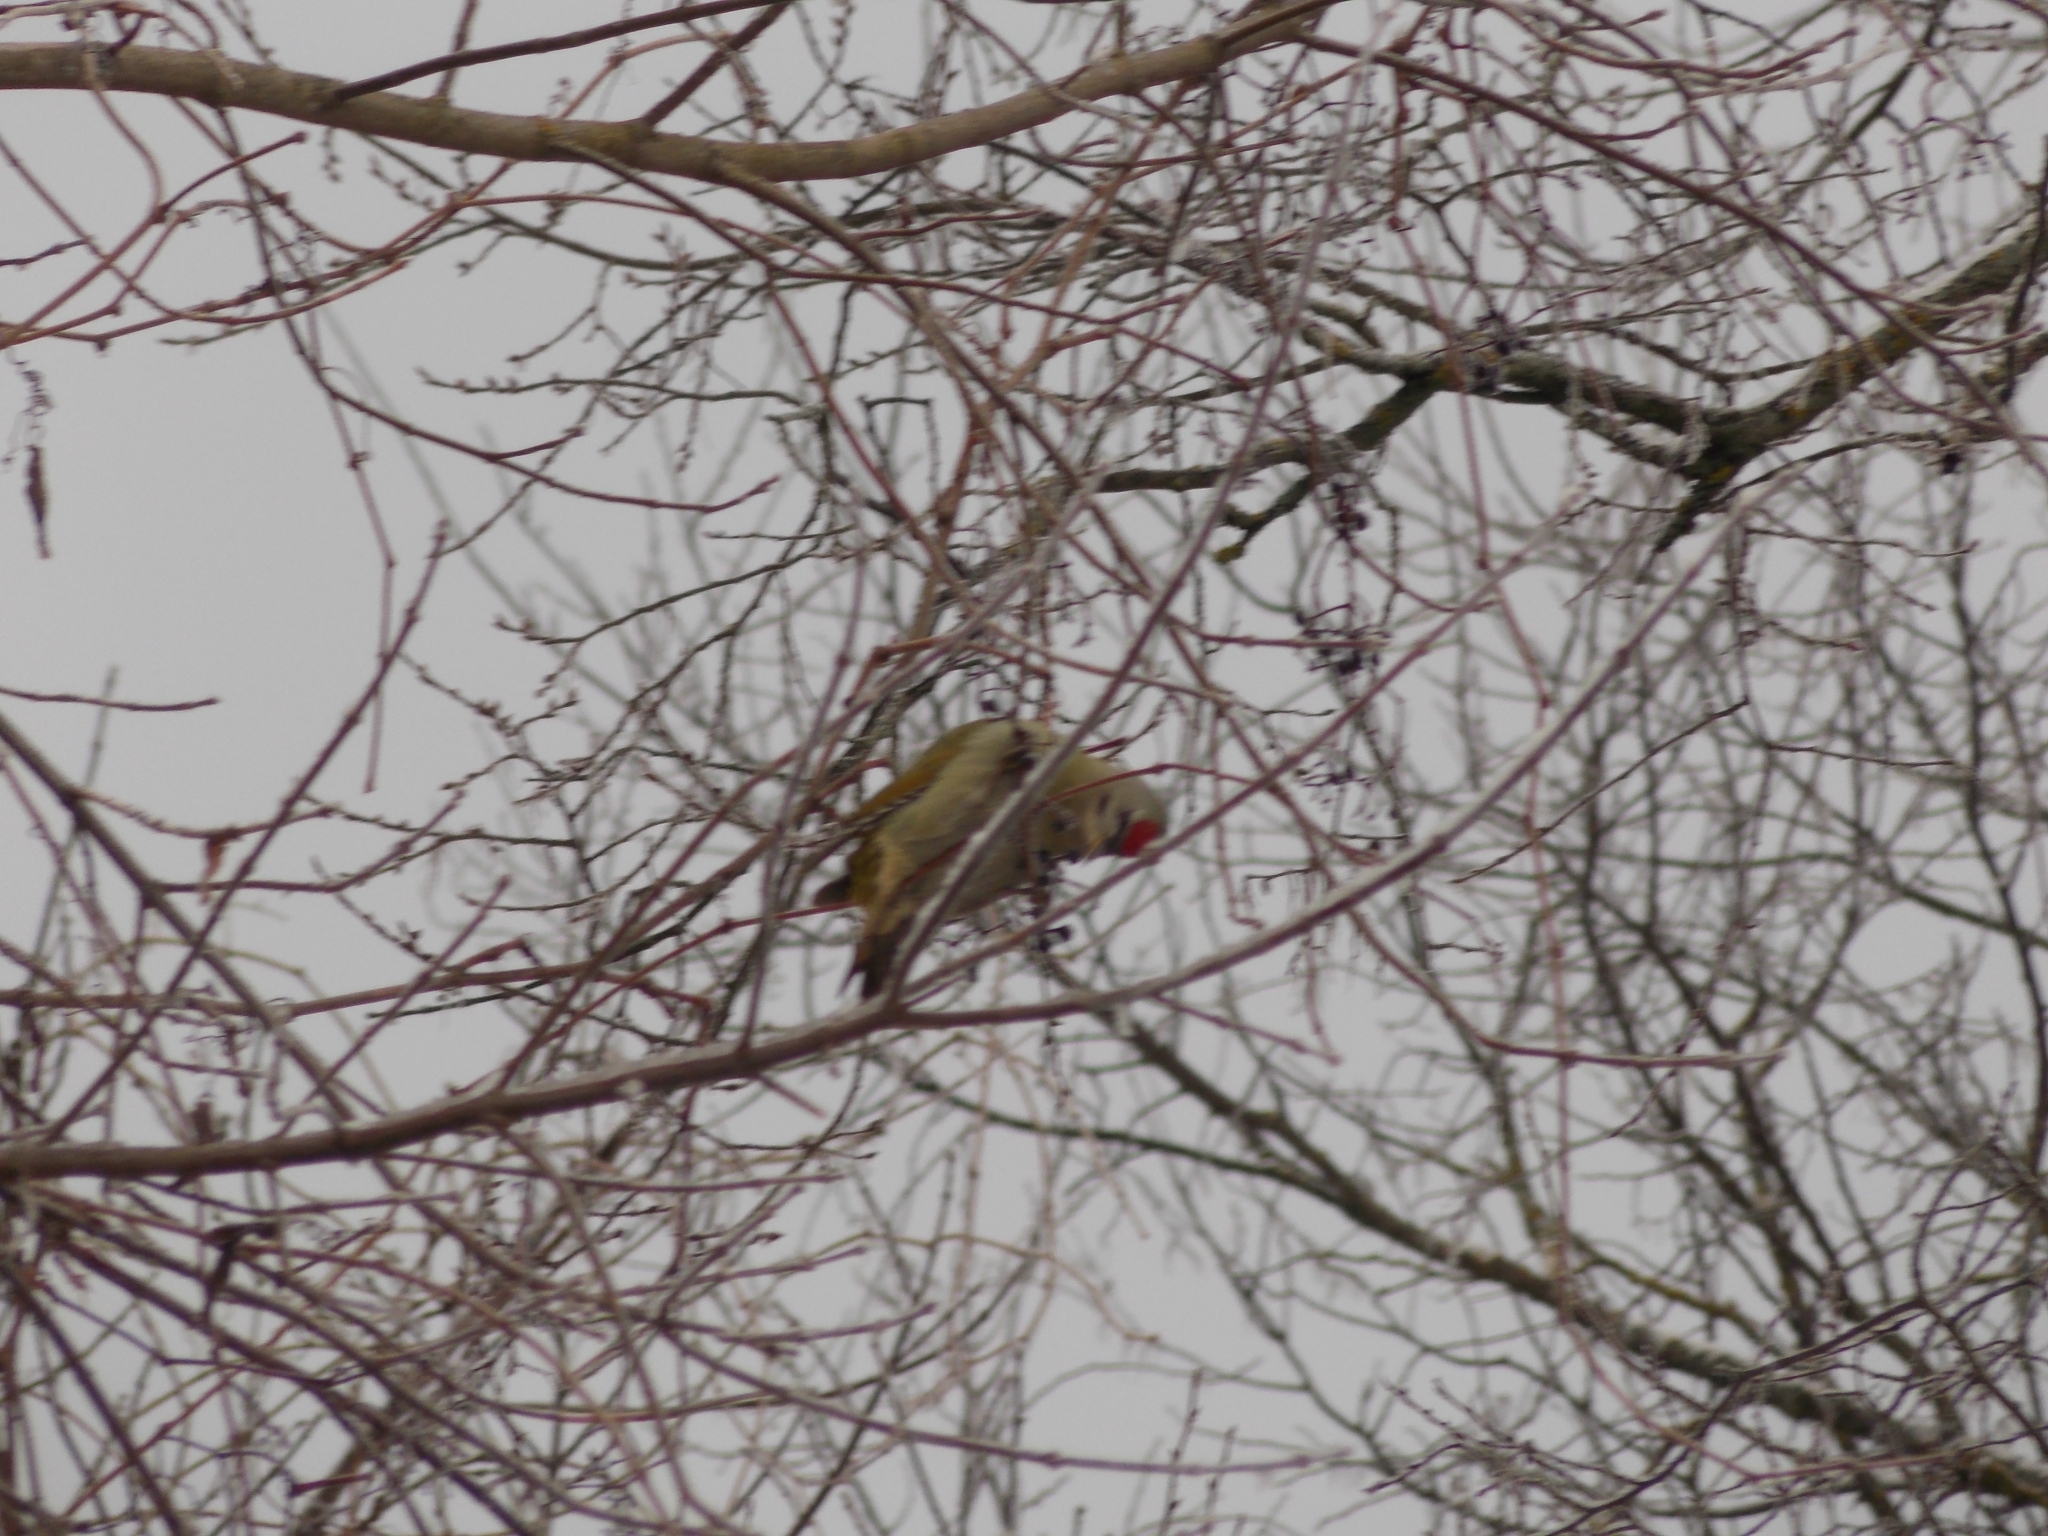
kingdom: Animalia
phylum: Chordata
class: Aves
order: Piciformes
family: Picidae
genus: Picus
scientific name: Picus canus
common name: Grey-headed woodpecker
